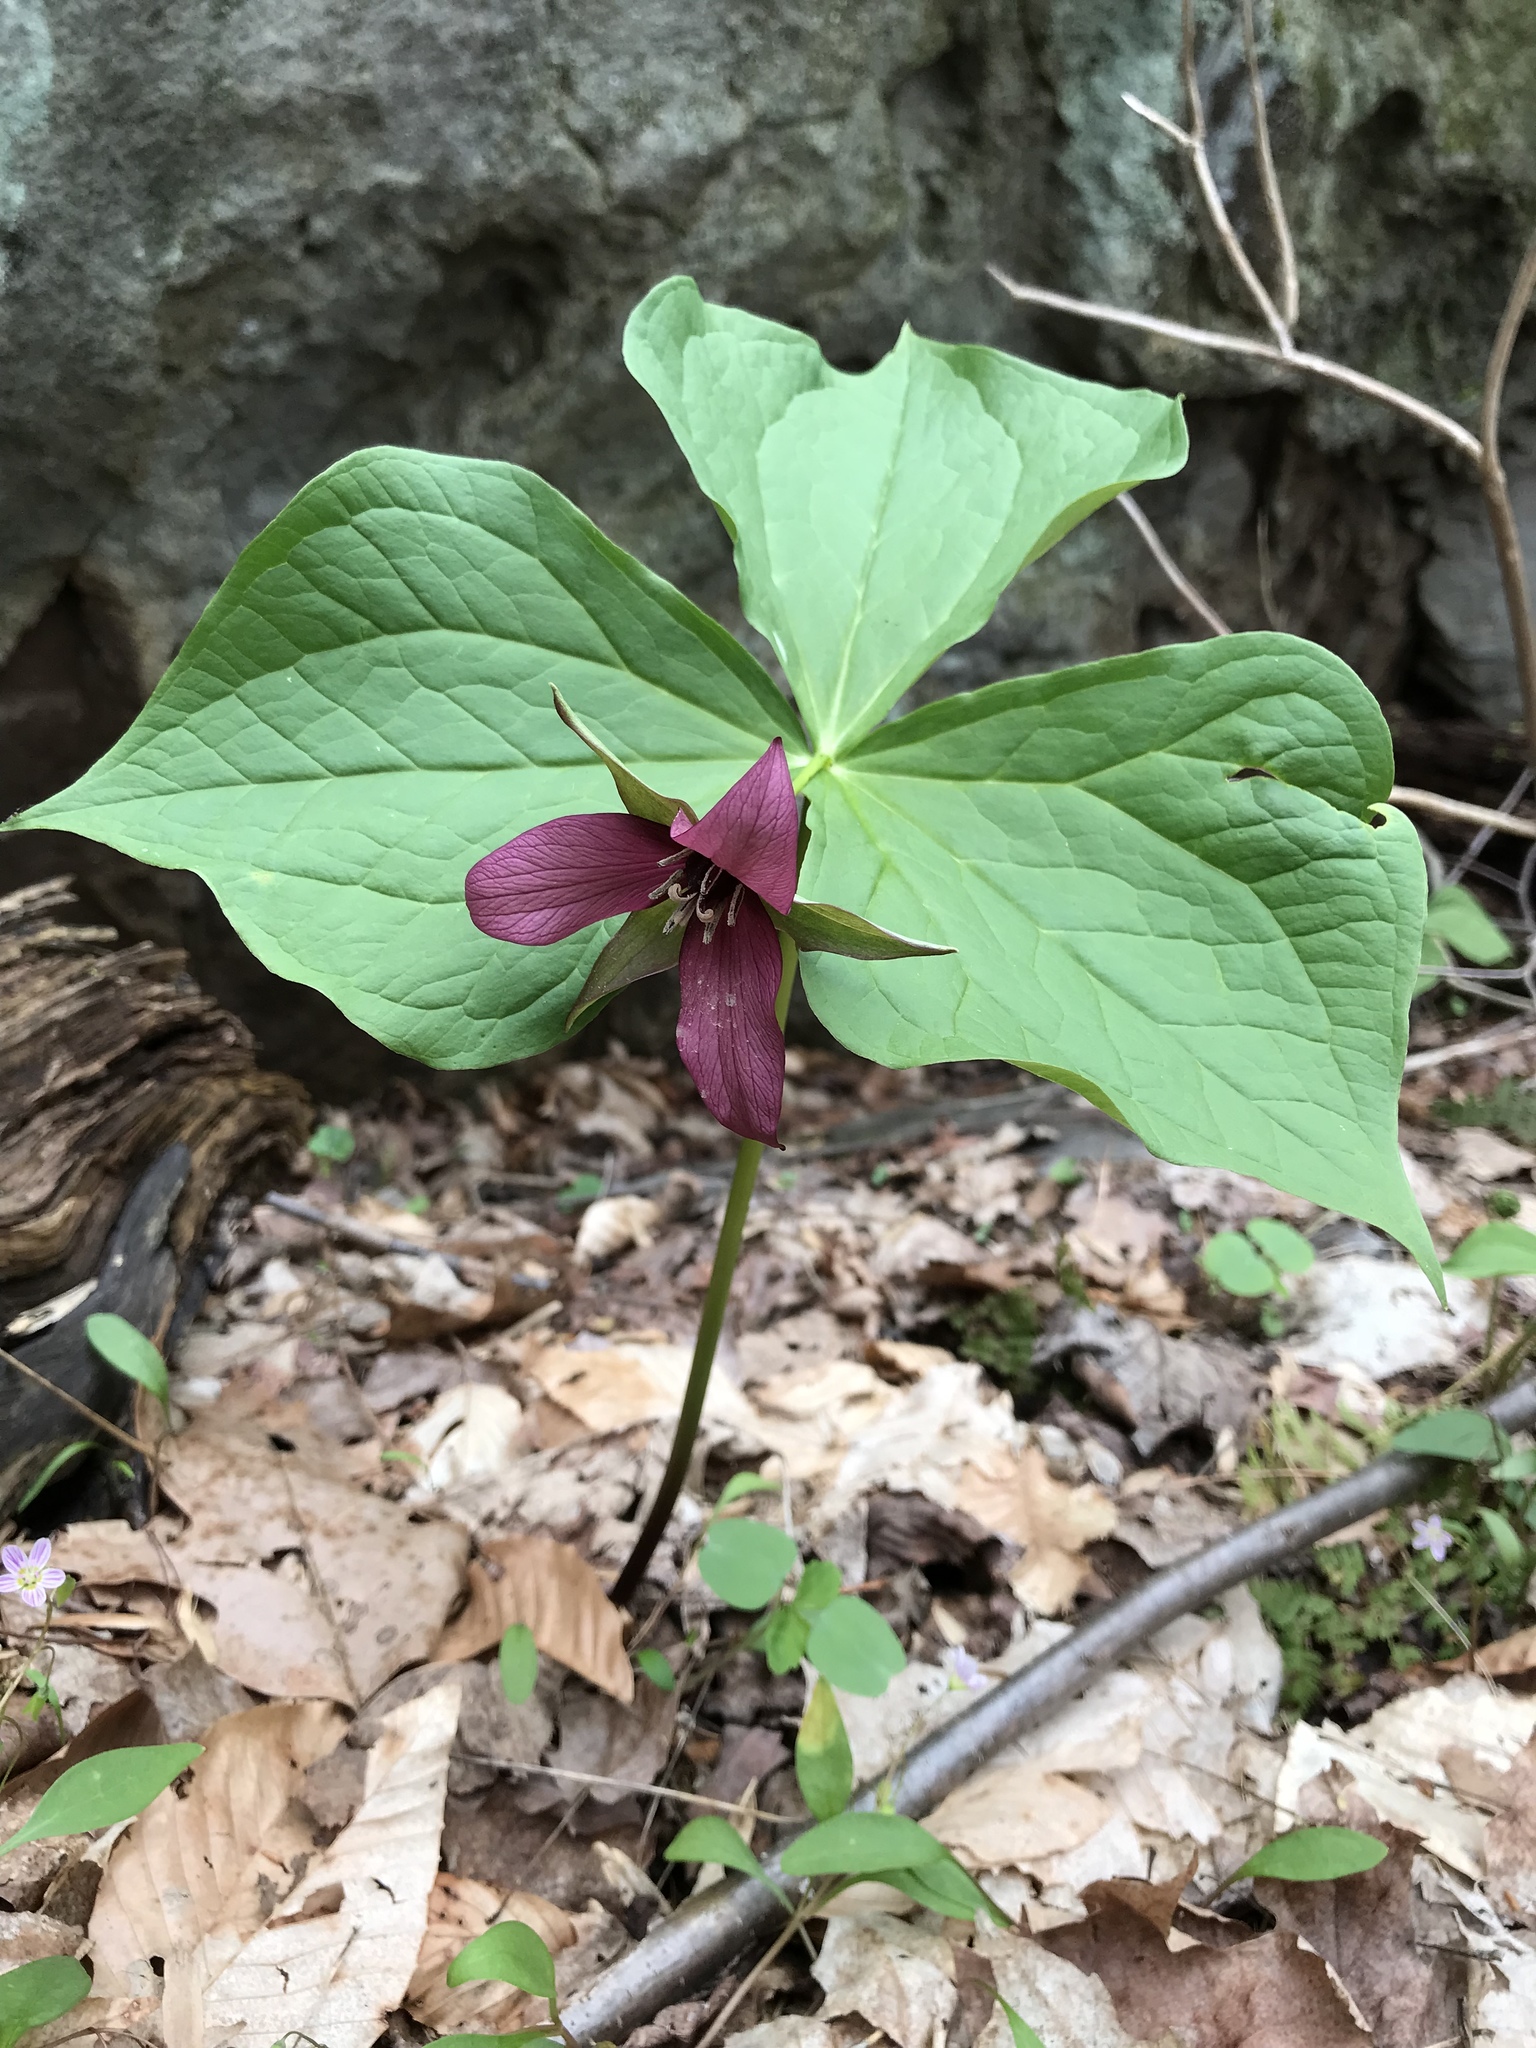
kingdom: Plantae
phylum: Tracheophyta
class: Liliopsida
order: Liliales
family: Melanthiaceae
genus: Trillium
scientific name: Trillium erectum
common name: Purple trillium
